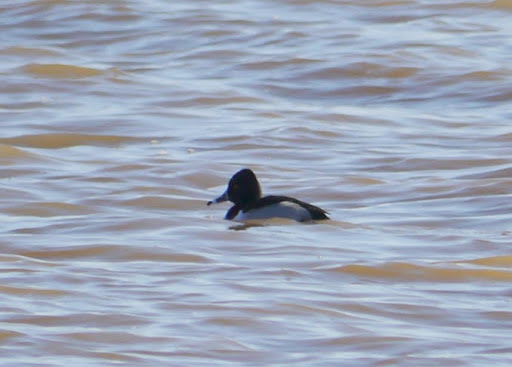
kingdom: Animalia
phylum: Chordata
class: Aves
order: Anseriformes
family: Anatidae
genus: Aythya
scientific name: Aythya collaris
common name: Ring-necked duck
